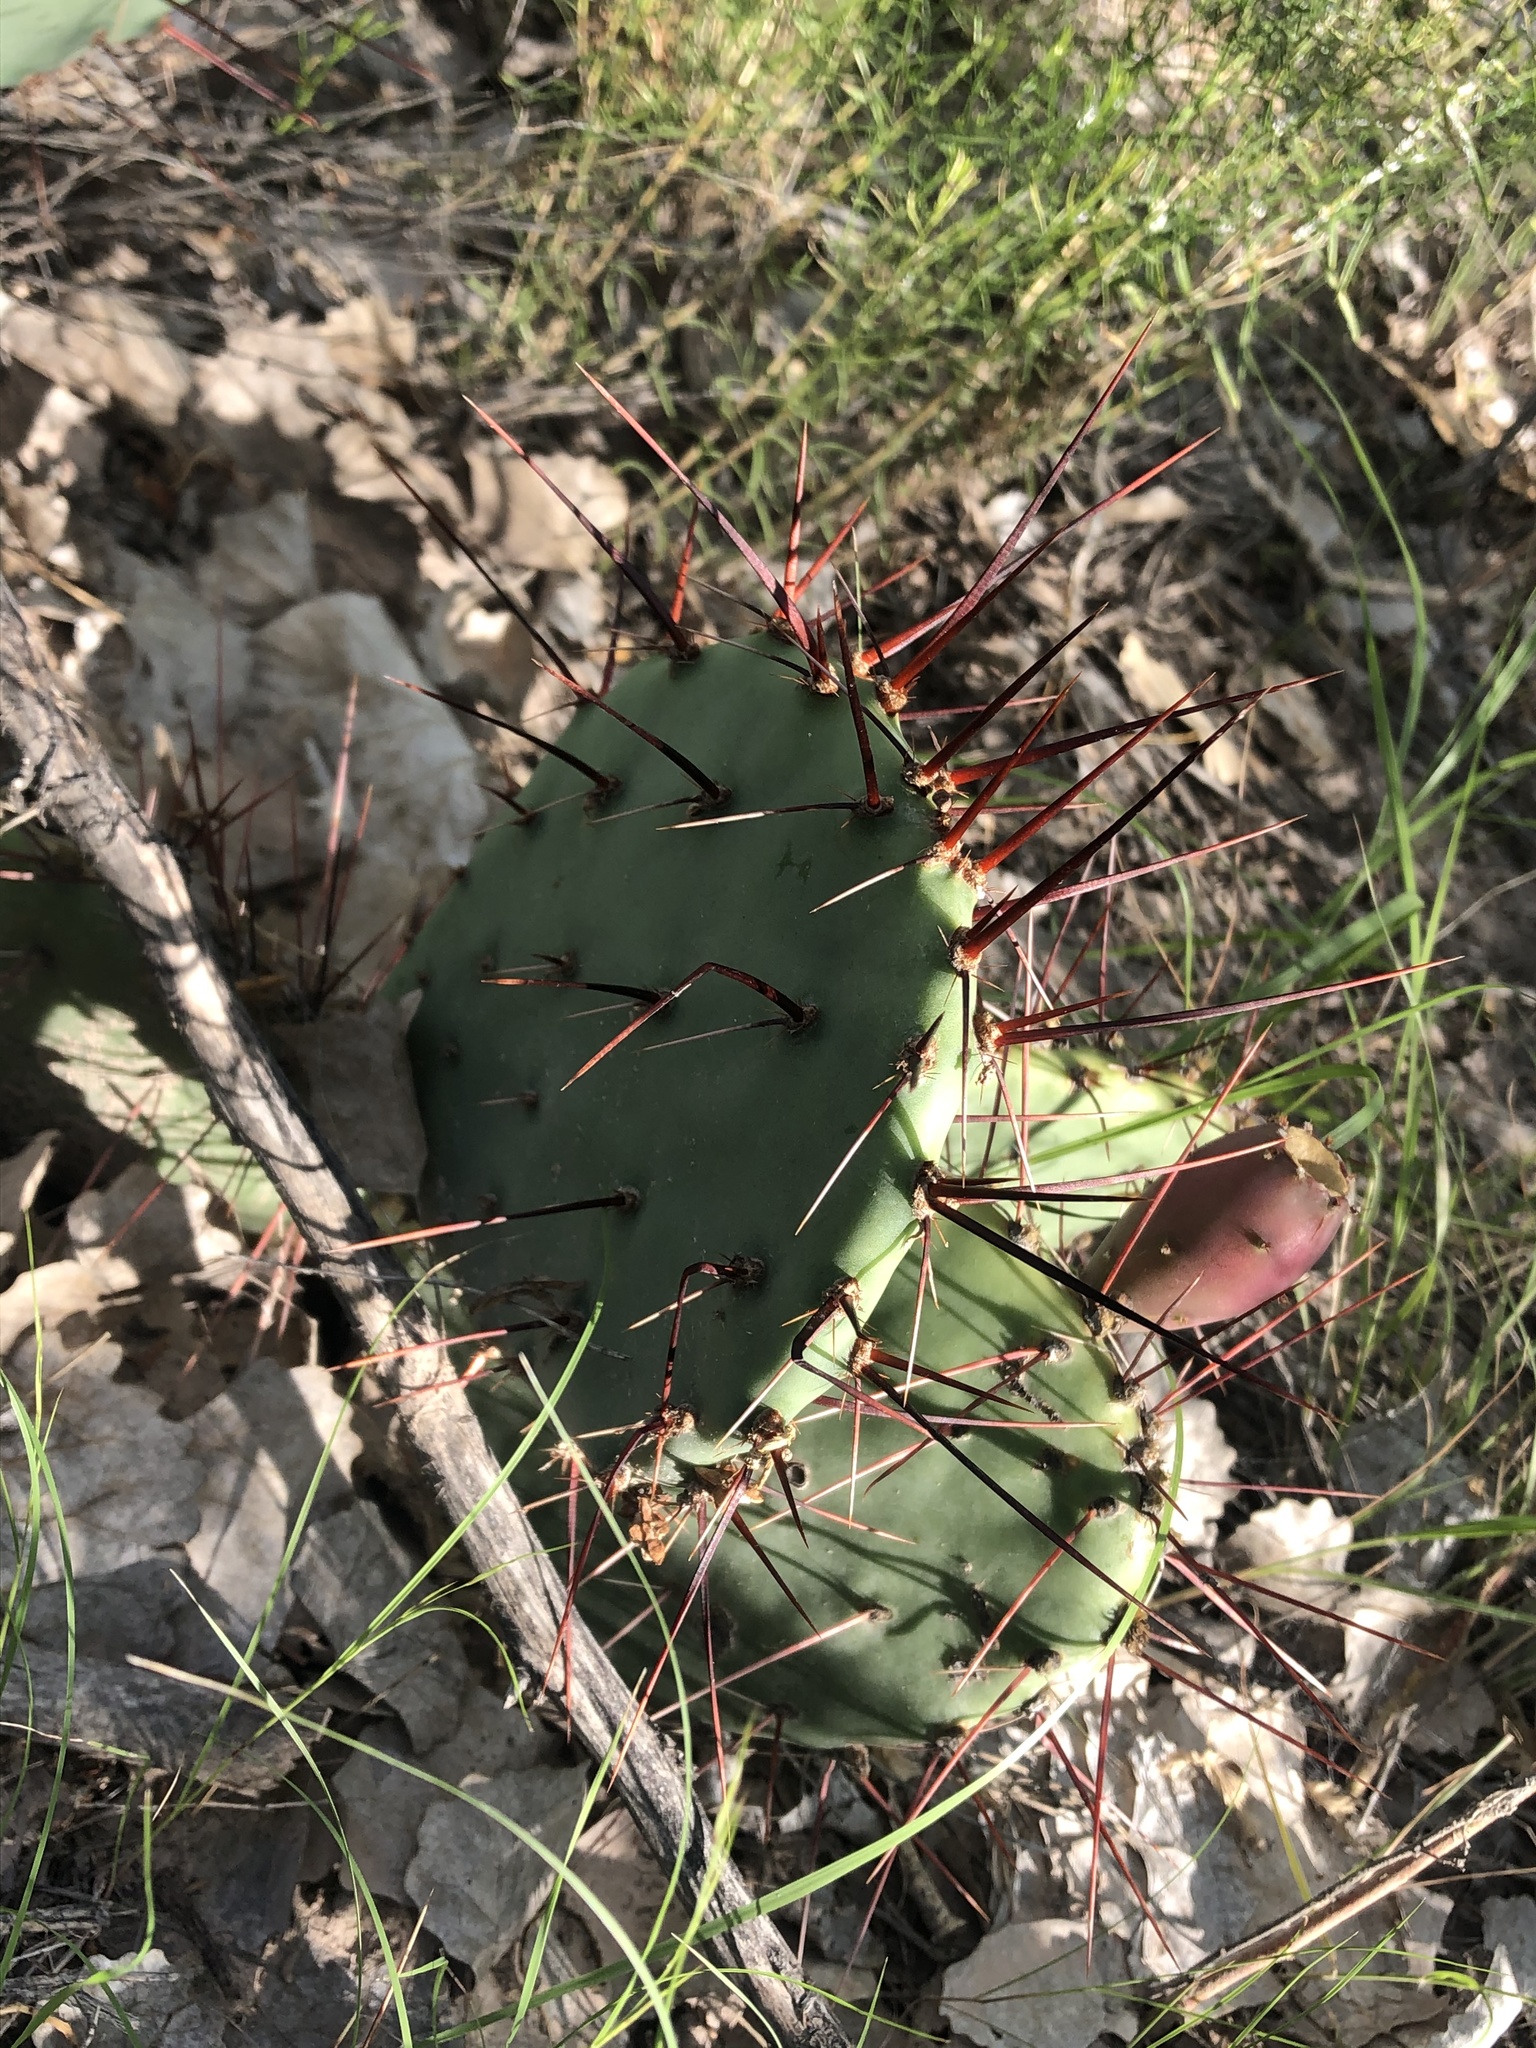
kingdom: Plantae
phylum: Tracheophyta
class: Magnoliopsida
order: Caryophyllales
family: Cactaceae
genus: Opuntia
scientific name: Opuntia phaeacantha
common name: New mexico prickly-pear
